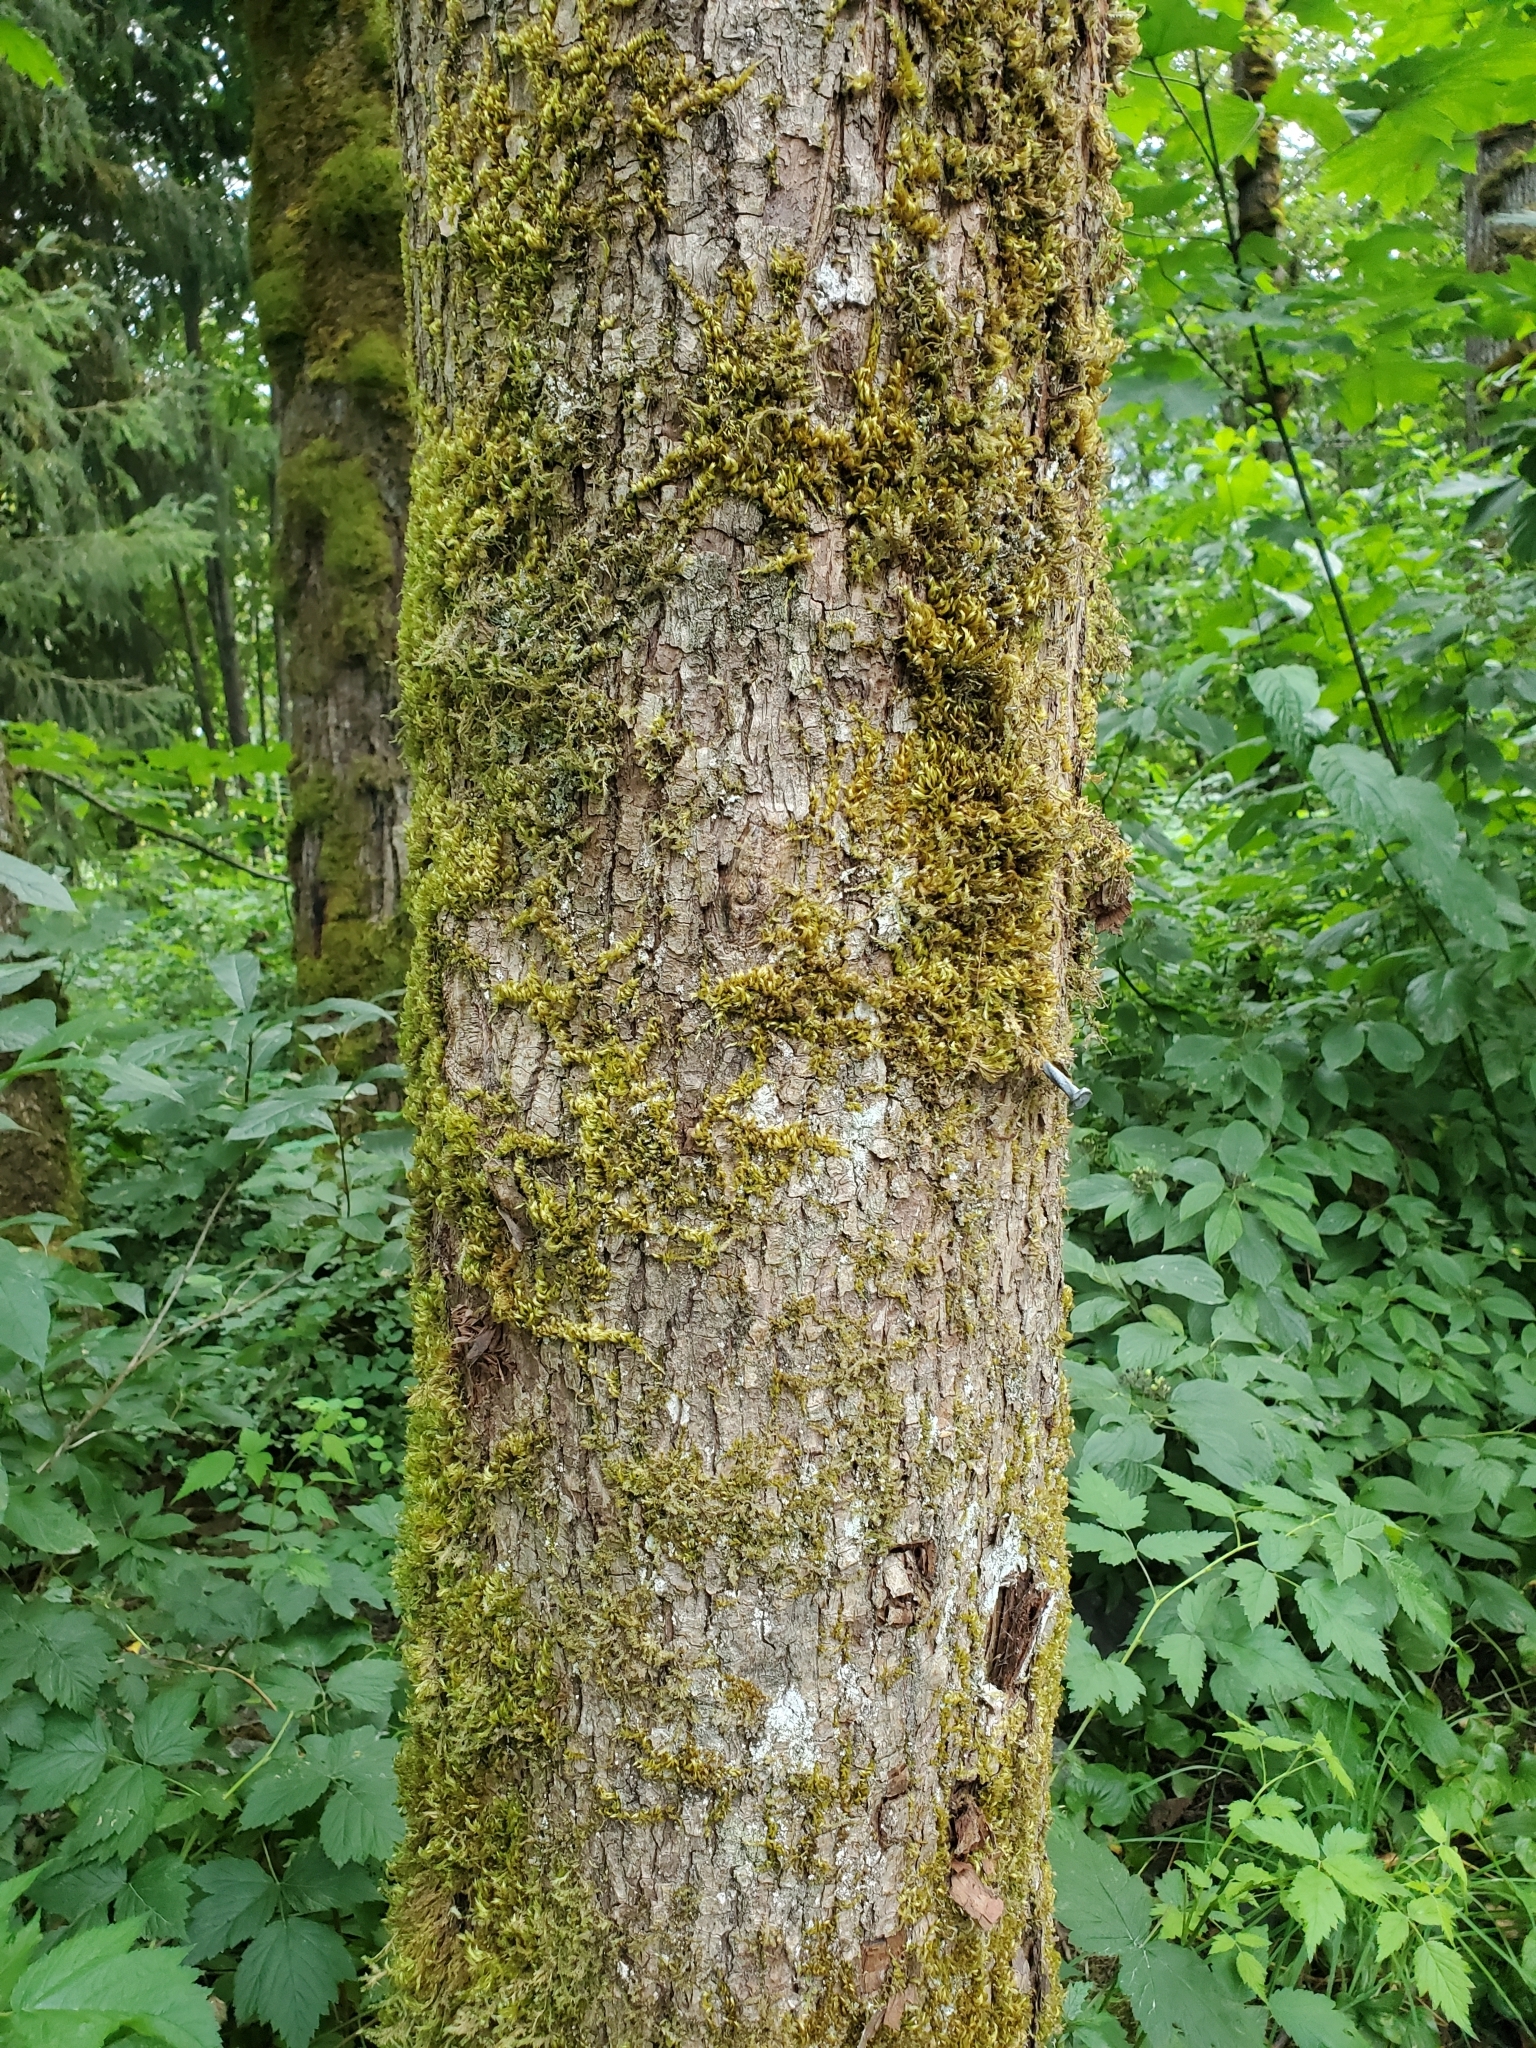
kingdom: Plantae
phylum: Tracheophyta
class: Magnoliopsida
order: Sapindales
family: Sapindaceae
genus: Acer
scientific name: Acer macrophyllum
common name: Oregon maple
